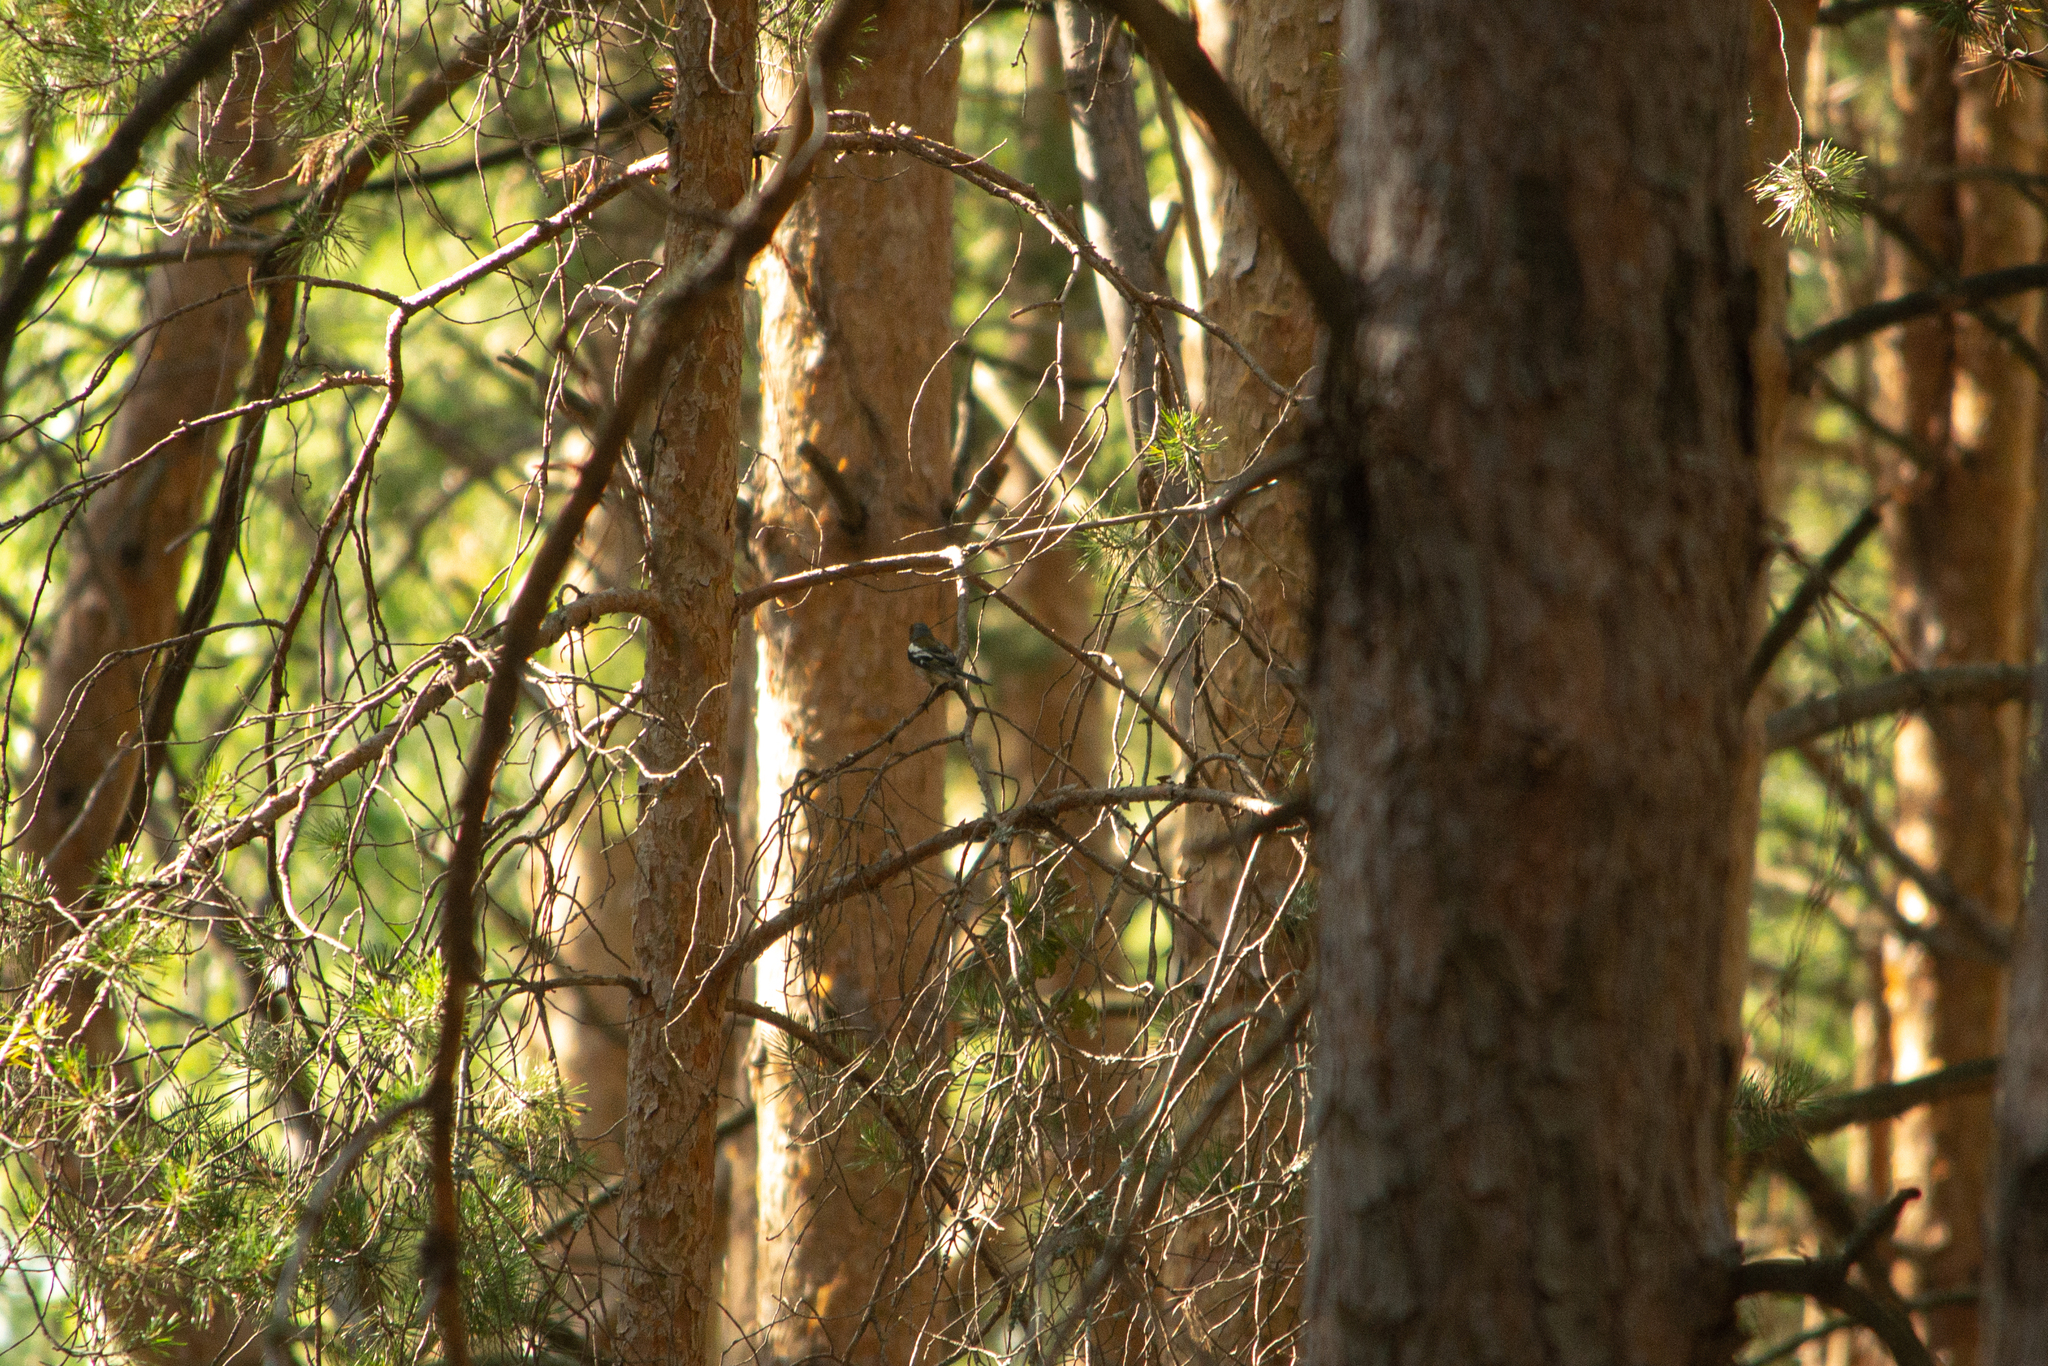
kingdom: Animalia
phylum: Chordata
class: Aves
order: Passeriformes
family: Fringillidae
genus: Fringilla
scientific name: Fringilla coelebs
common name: Common chaffinch
